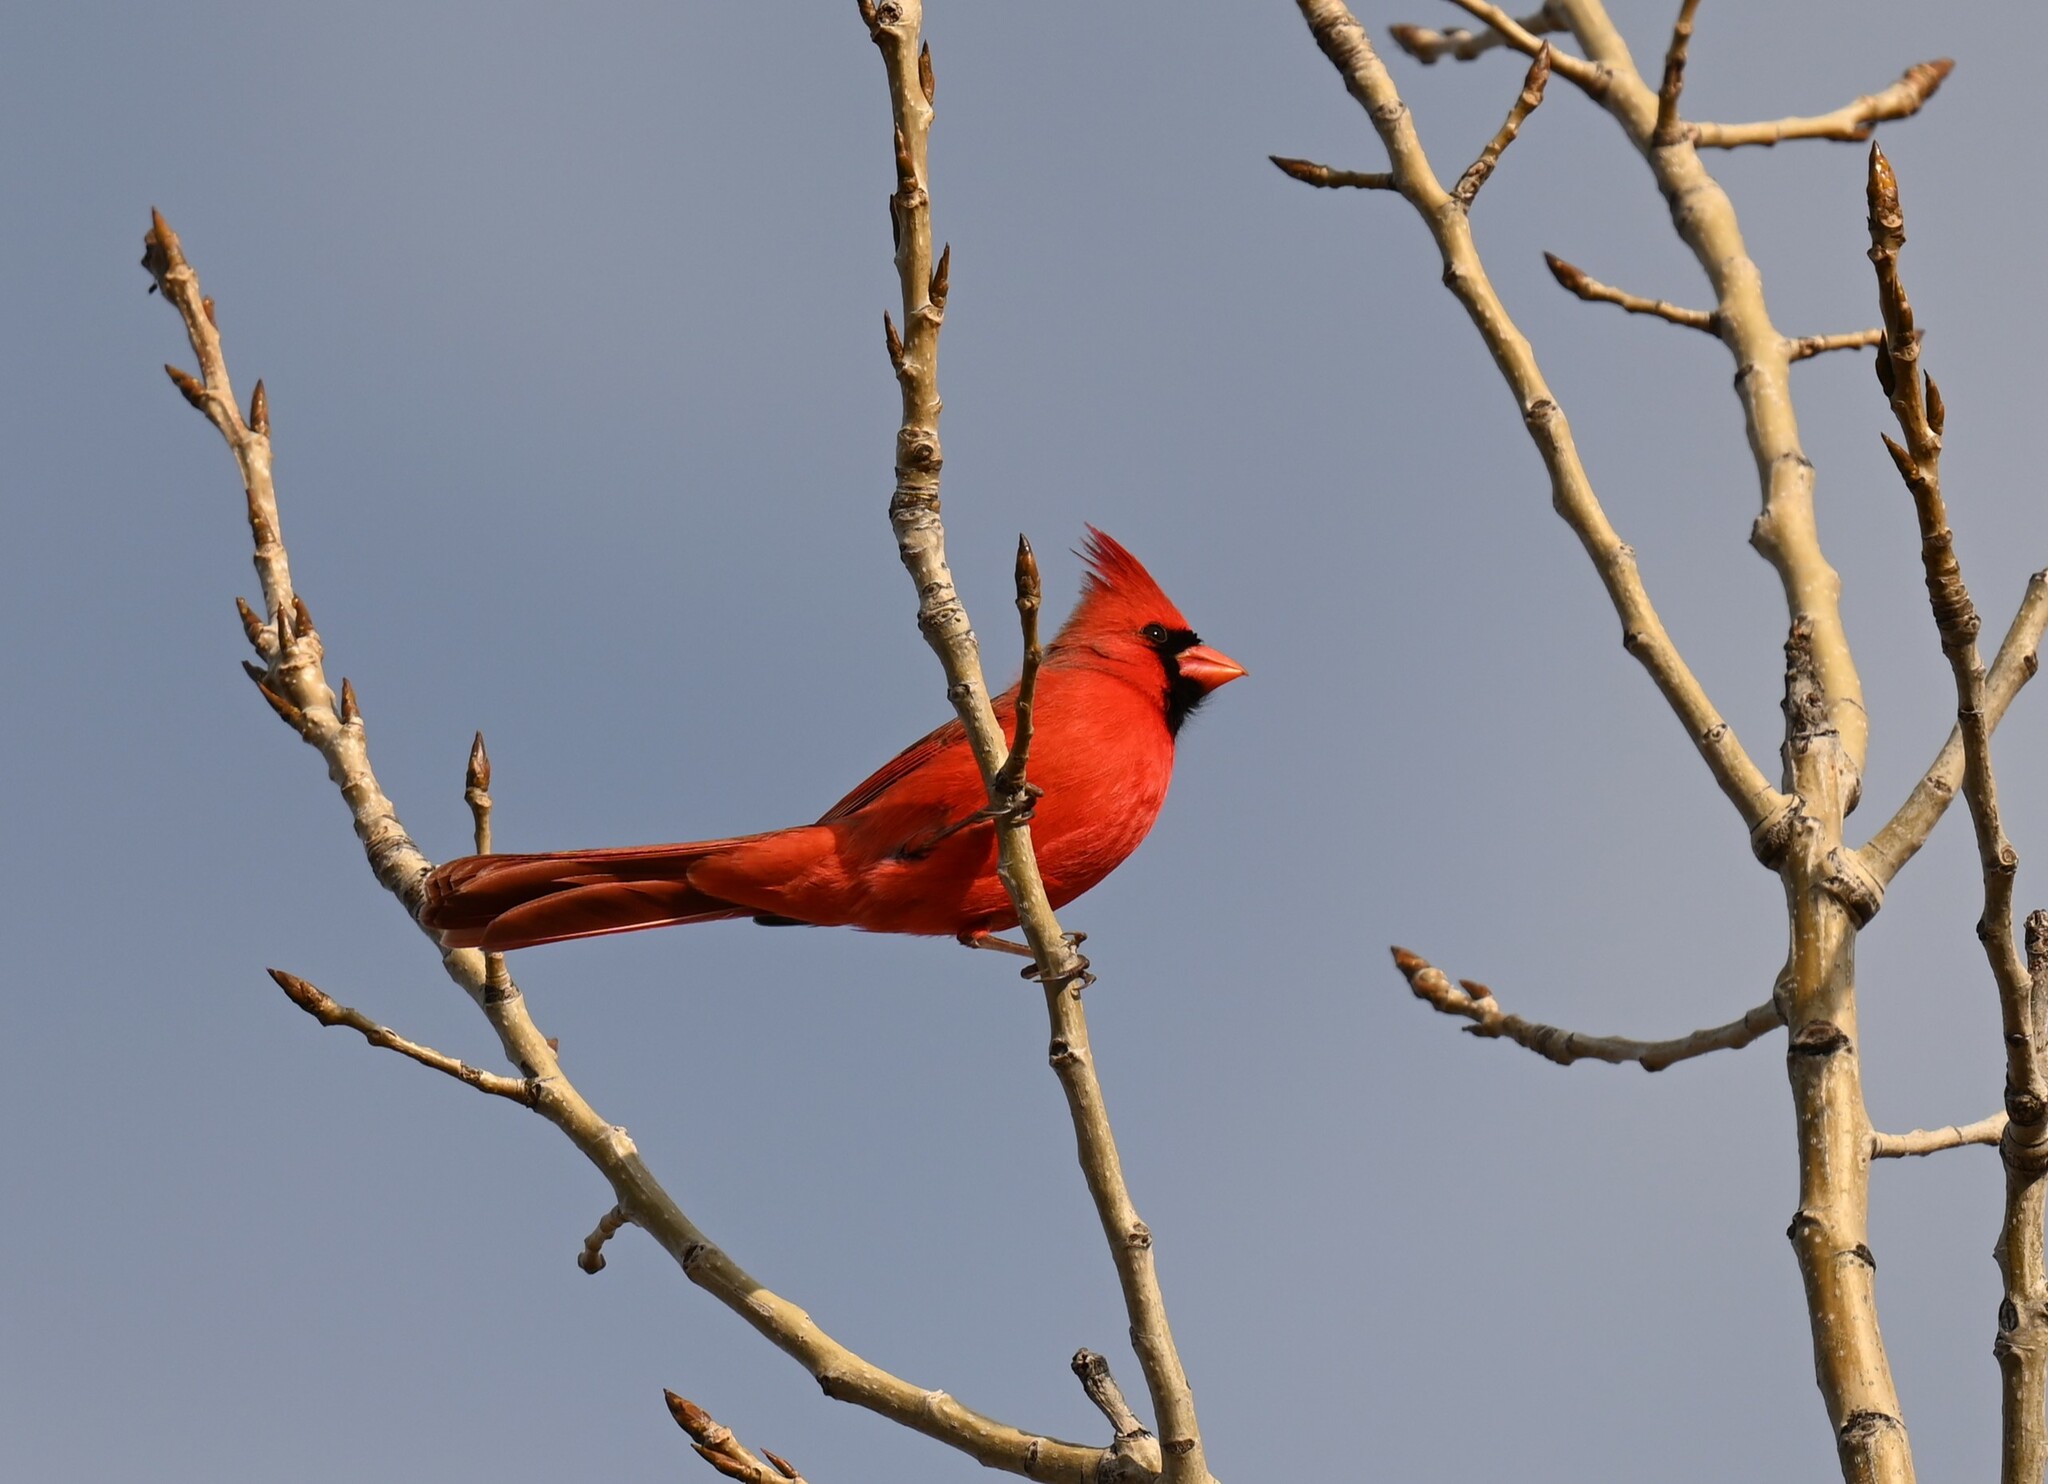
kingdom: Animalia
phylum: Chordata
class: Aves
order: Passeriformes
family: Cardinalidae
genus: Cardinalis
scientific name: Cardinalis cardinalis
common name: Northern cardinal
